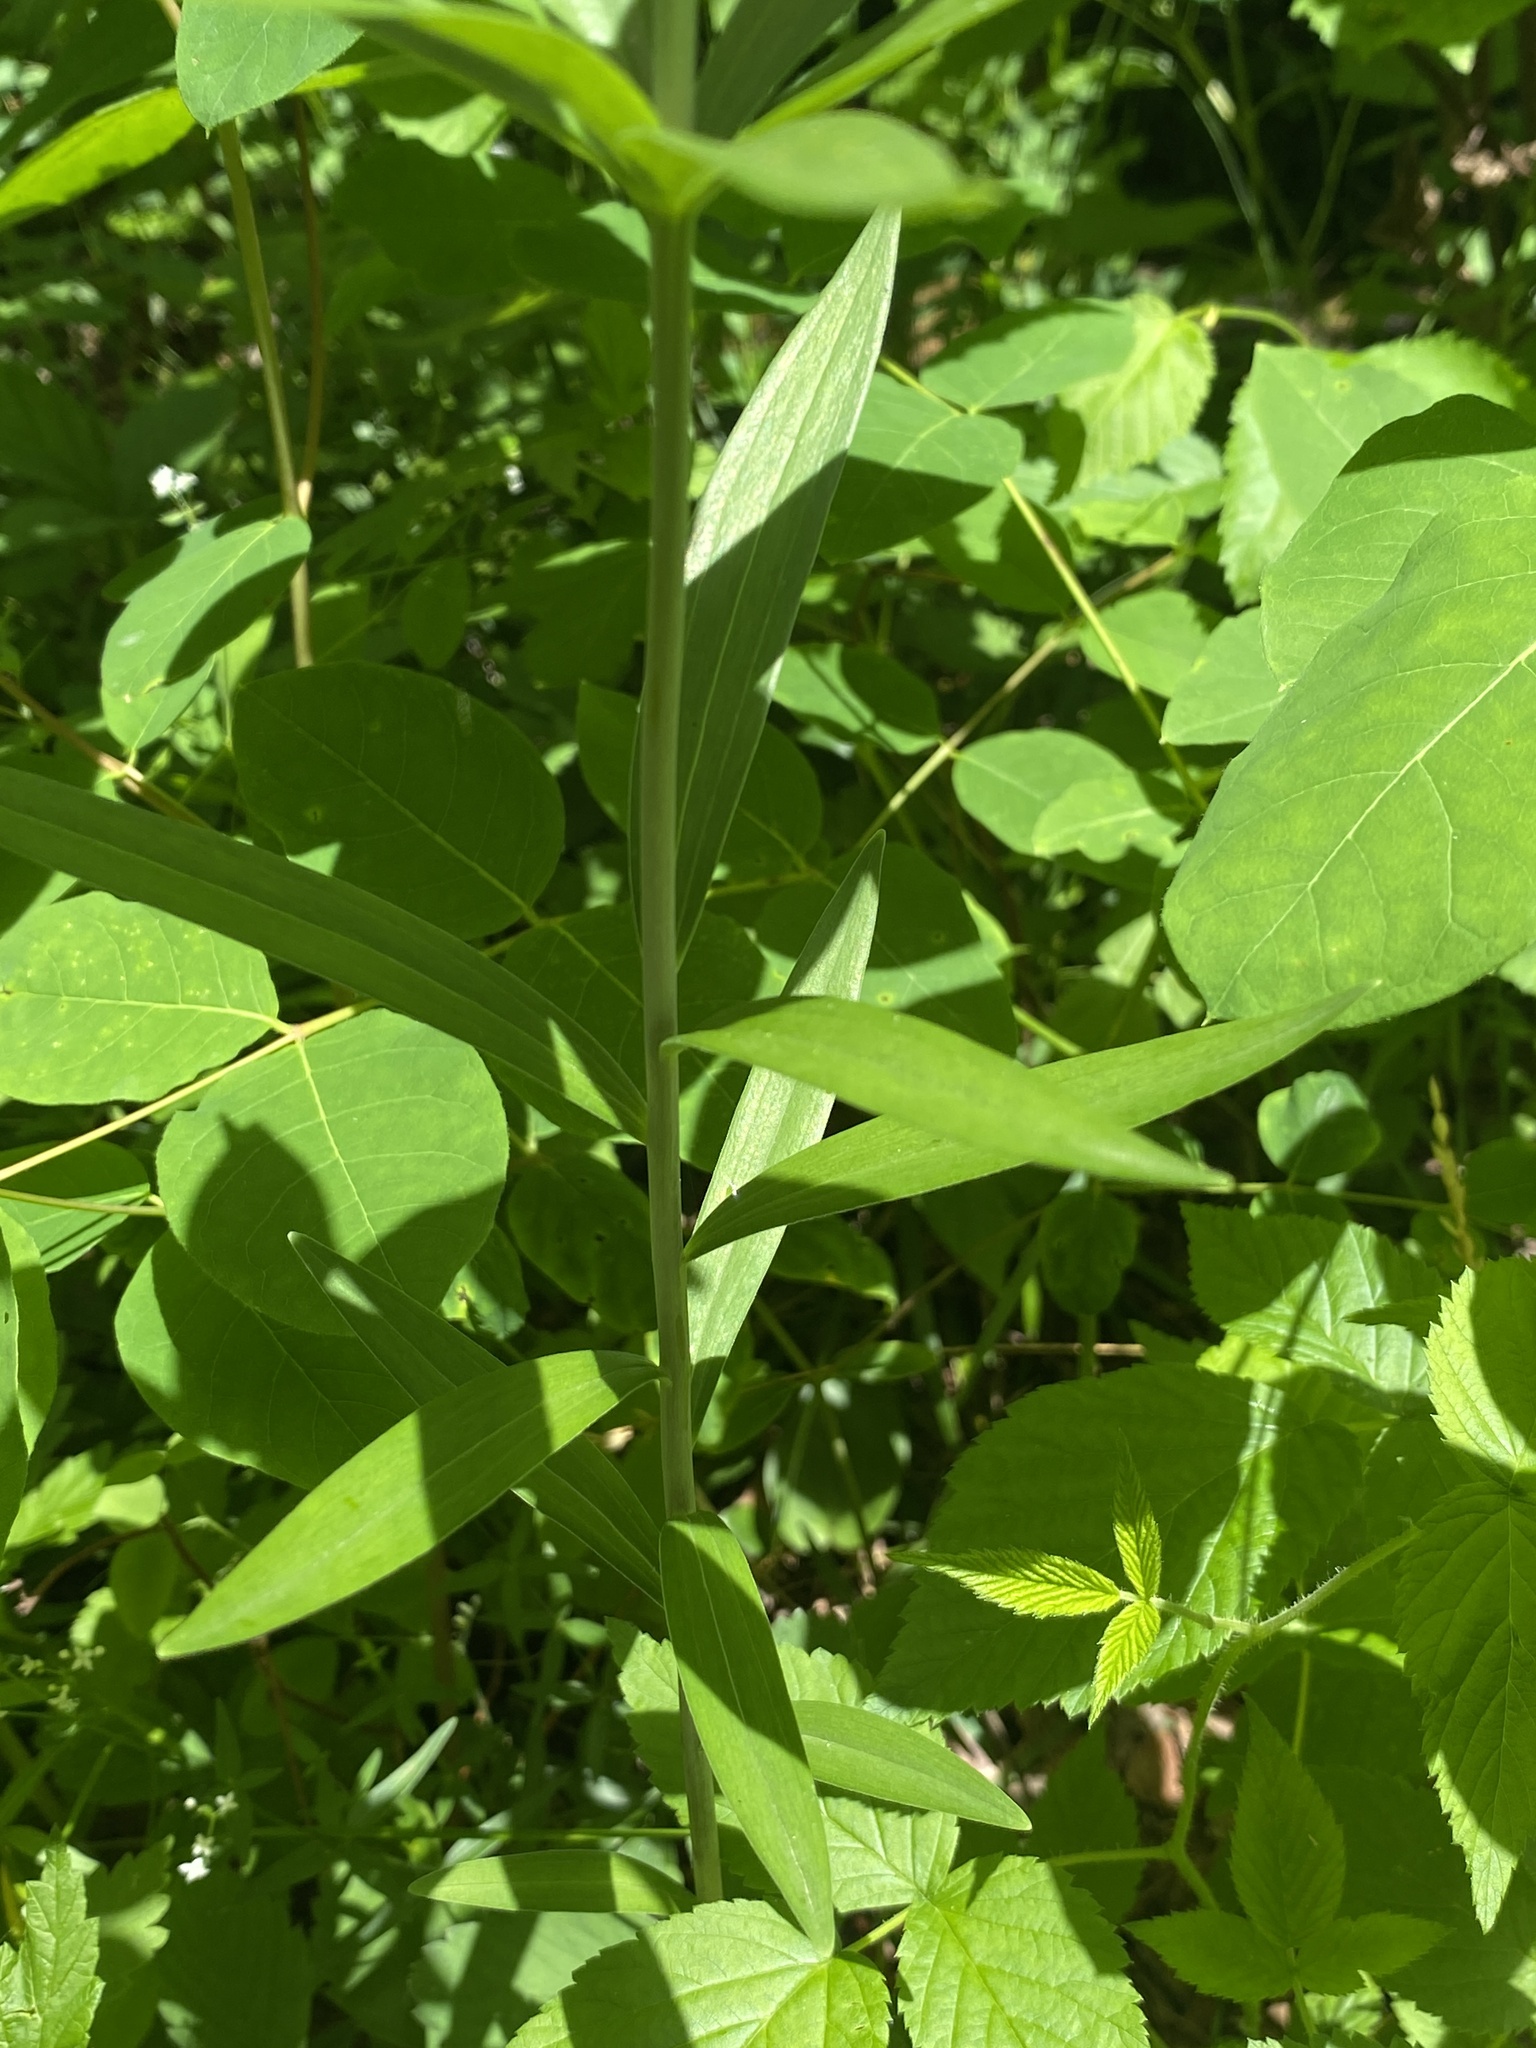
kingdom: Plantae
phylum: Tracheophyta
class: Liliopsida
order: Liliales
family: Liliaceae
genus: Lilium
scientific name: Lilium philadelphicum
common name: Red lily
